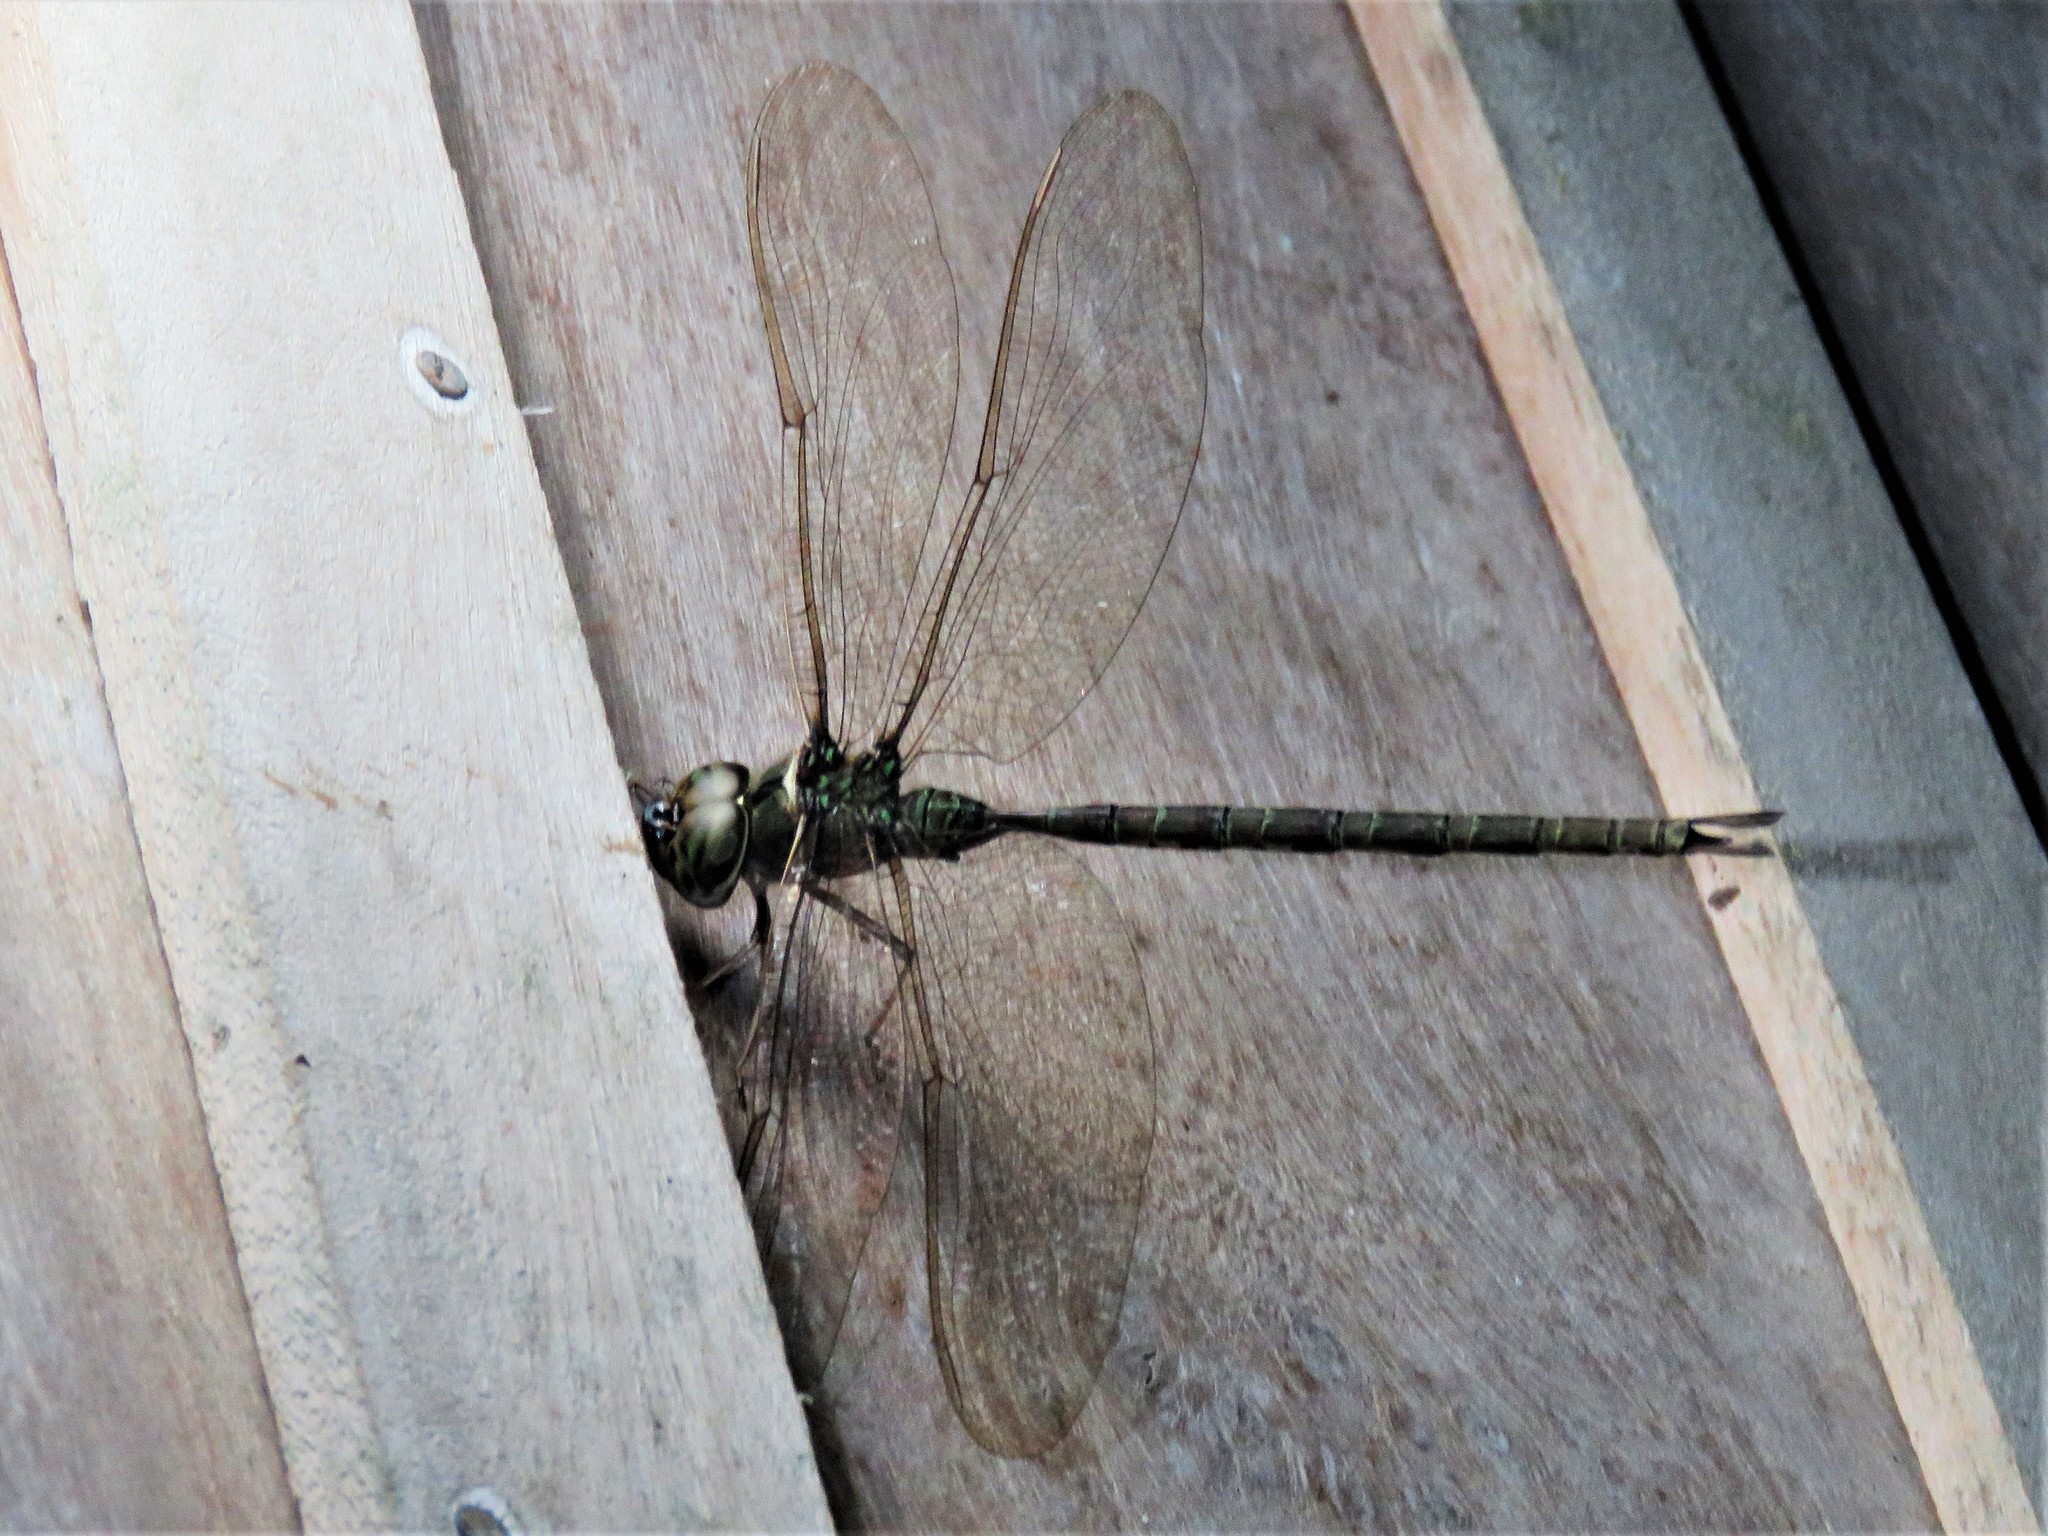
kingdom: Animalia
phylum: Arthropoda
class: Insecta
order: Odonata
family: Aeshnidae
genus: Gynacantha
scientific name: Gynacantha mexicana
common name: Bar-sided darner
